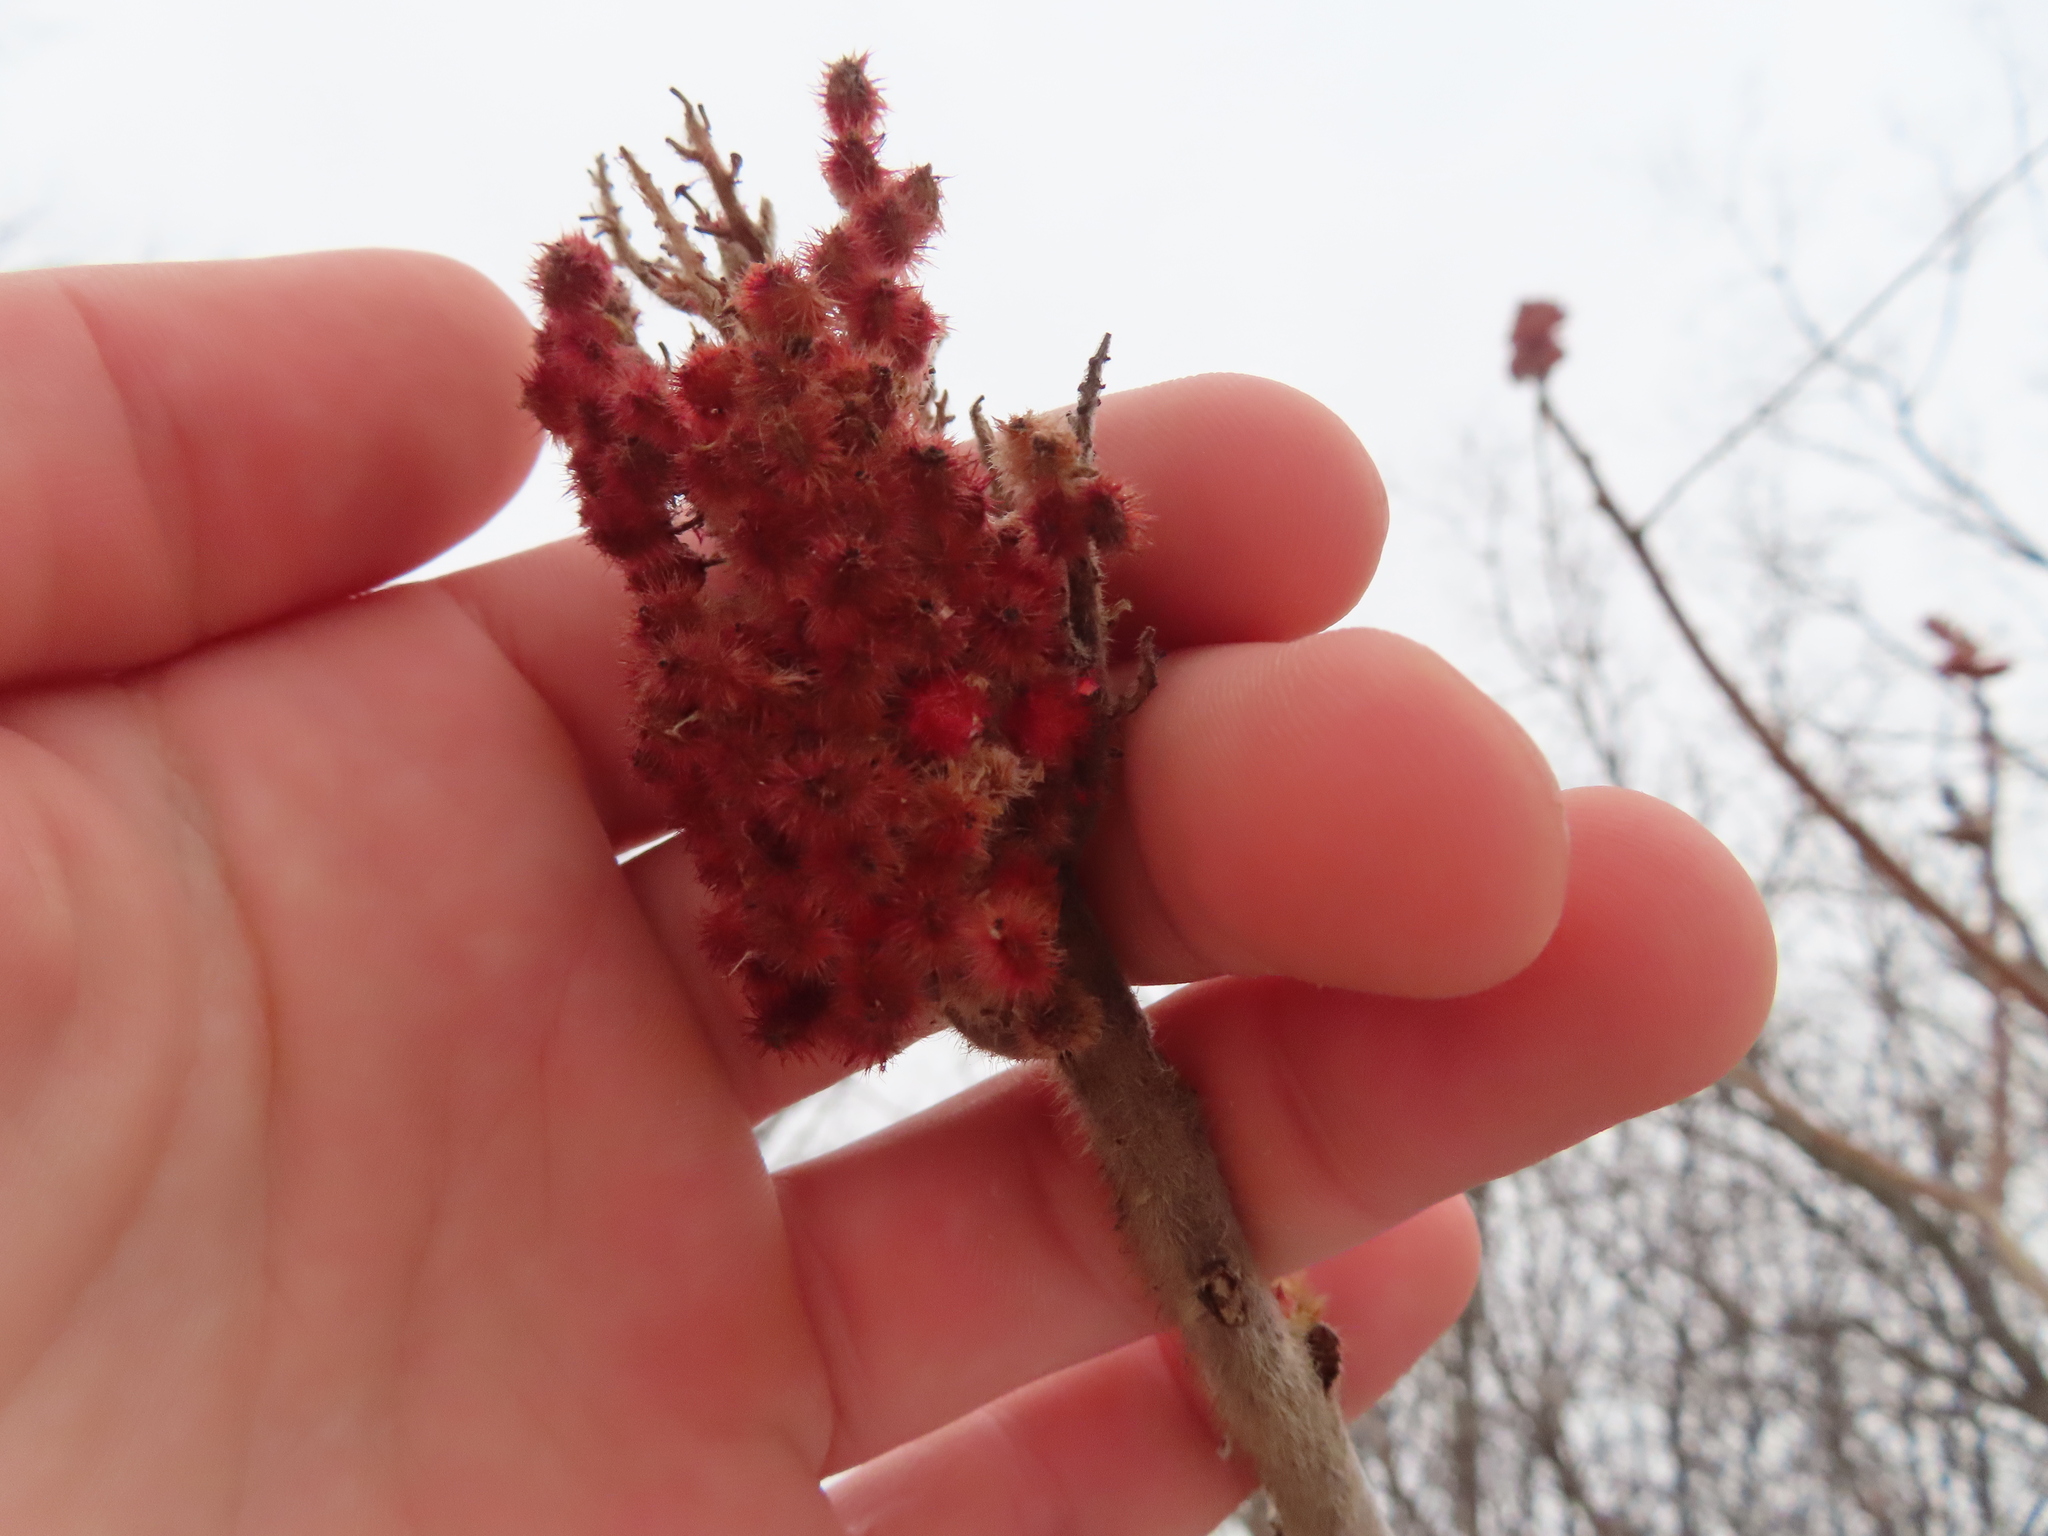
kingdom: Plantae
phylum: Tracheophyta
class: Magnoliopsida
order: Sapindales
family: Anacardiaceae
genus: Rhus
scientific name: Rhus typhina
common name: Staghorn sumac
